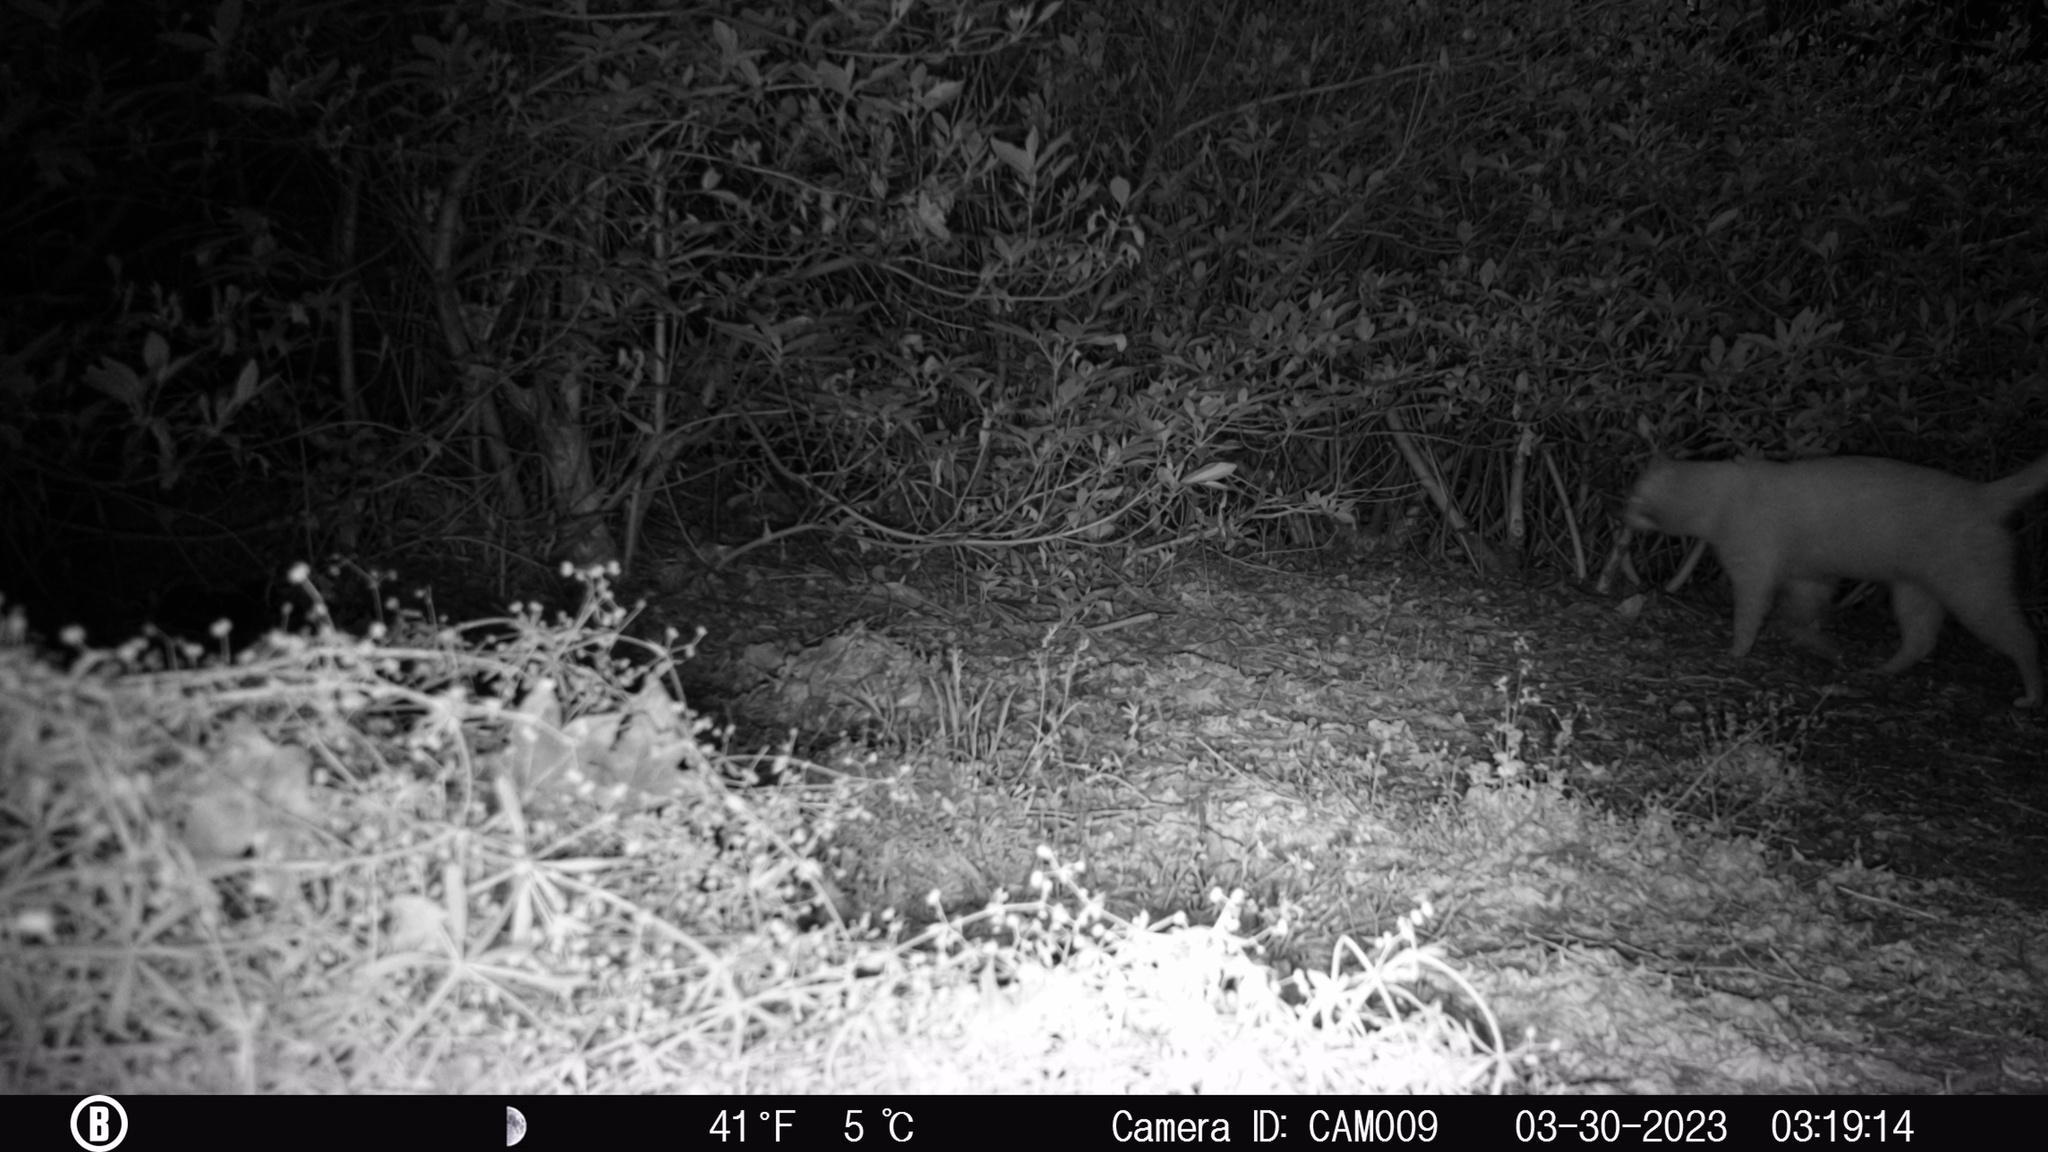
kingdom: Animalia
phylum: Chordata
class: Mammalia
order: Carnivora
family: Felidae
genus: Felis
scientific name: Felis catus
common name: Domestic cat
